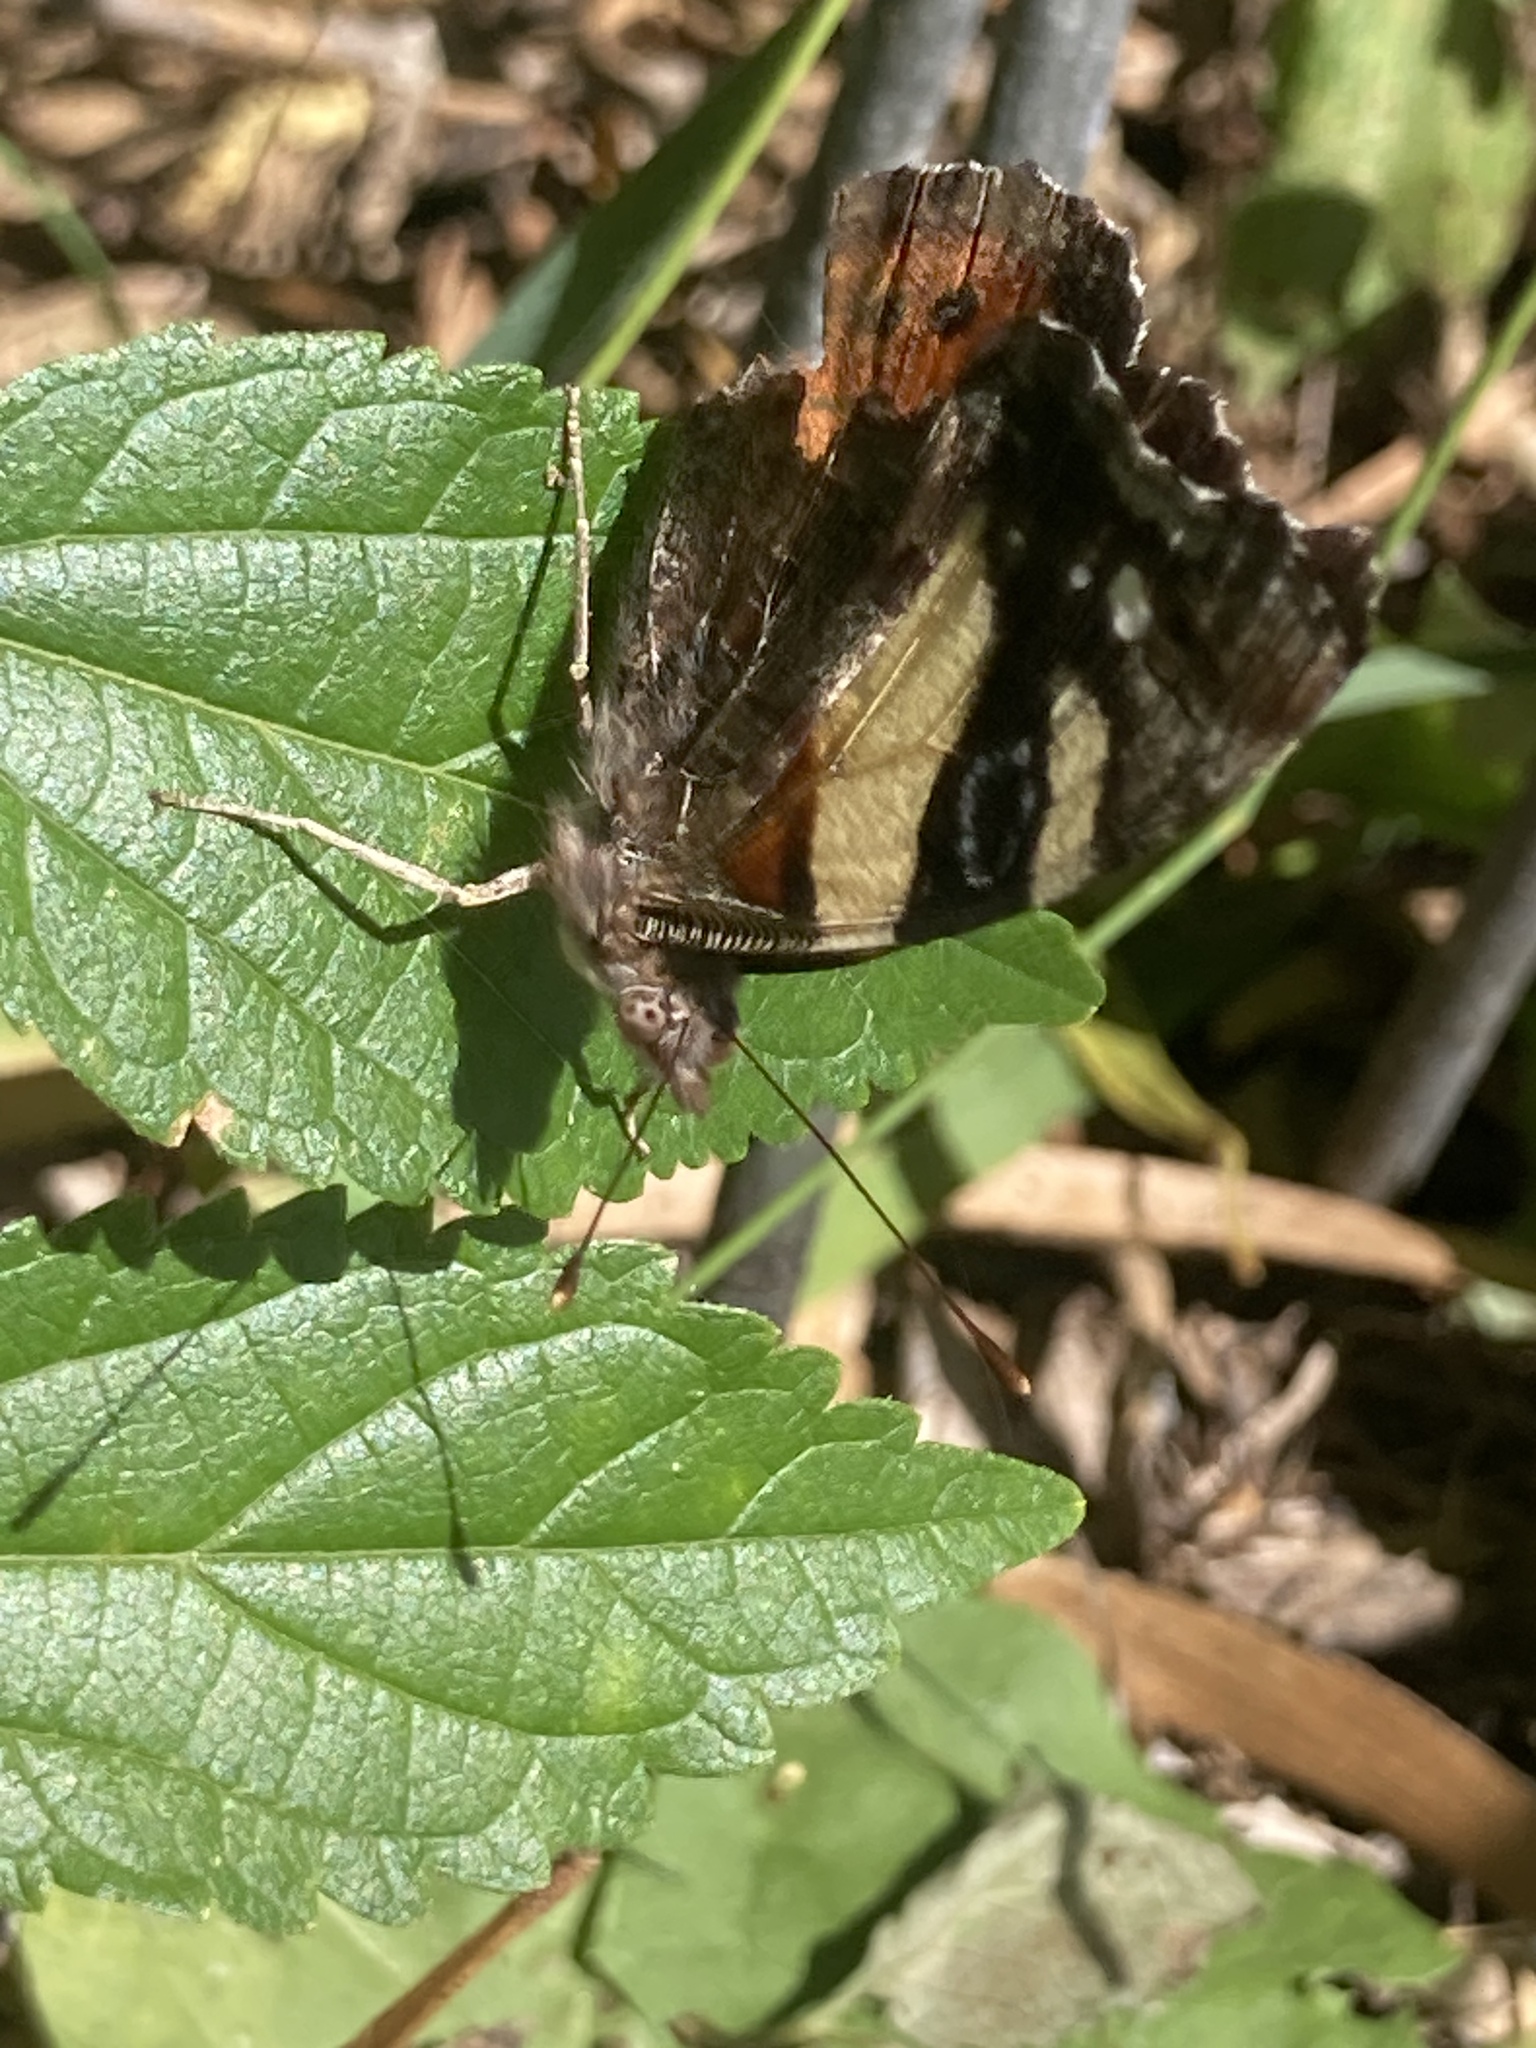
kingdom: Animalia
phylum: Arthropoda
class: Insecta
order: Lepidoptera
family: Nymphalidae
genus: Vanessa
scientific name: Vanessa itea
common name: Yellow admiral
